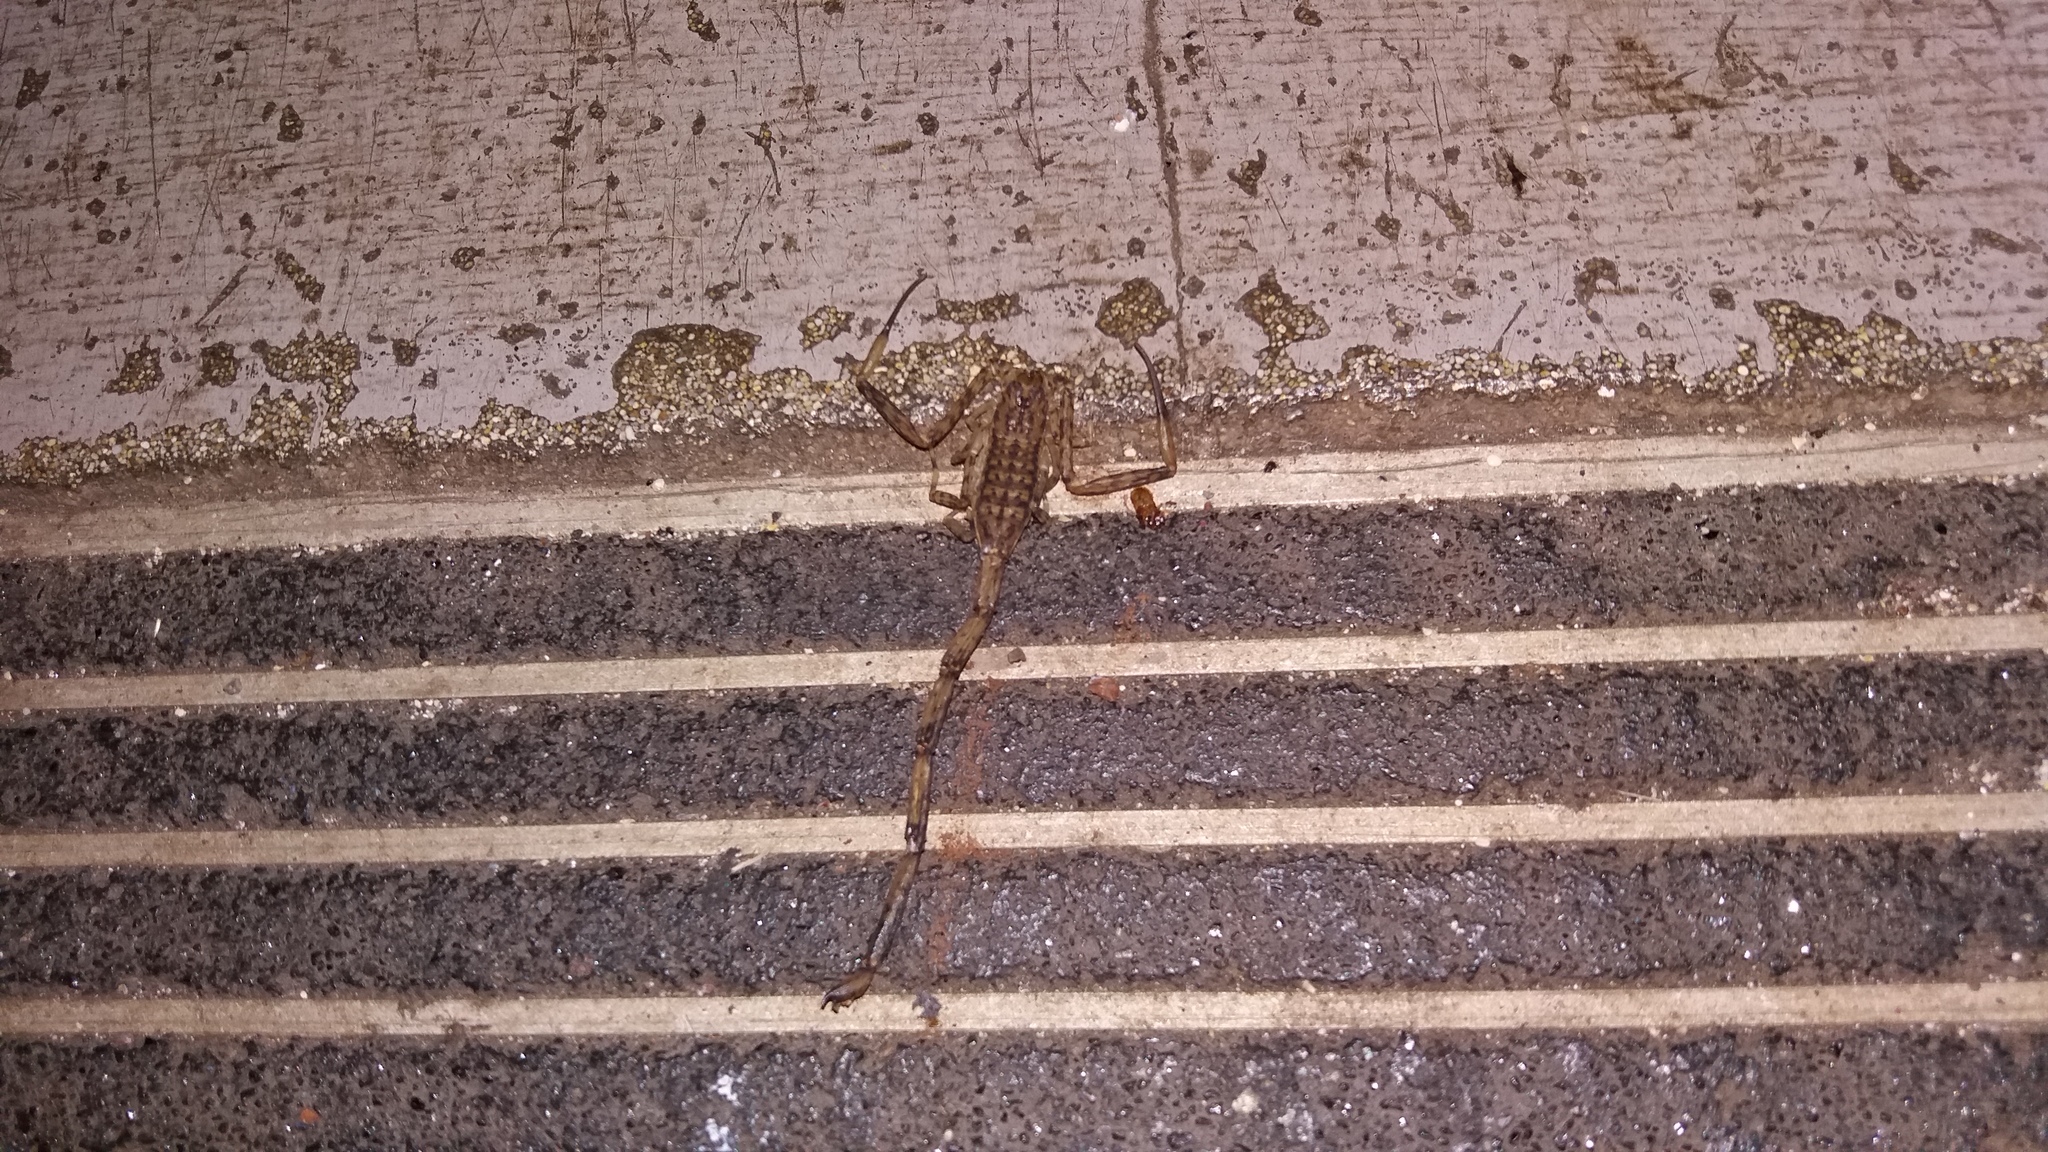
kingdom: Animalia
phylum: Arthropoda
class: Arachnida
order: Scorpiones
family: Buthidae
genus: Isometrus
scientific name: Isometrus maculatus
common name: Scorpions
